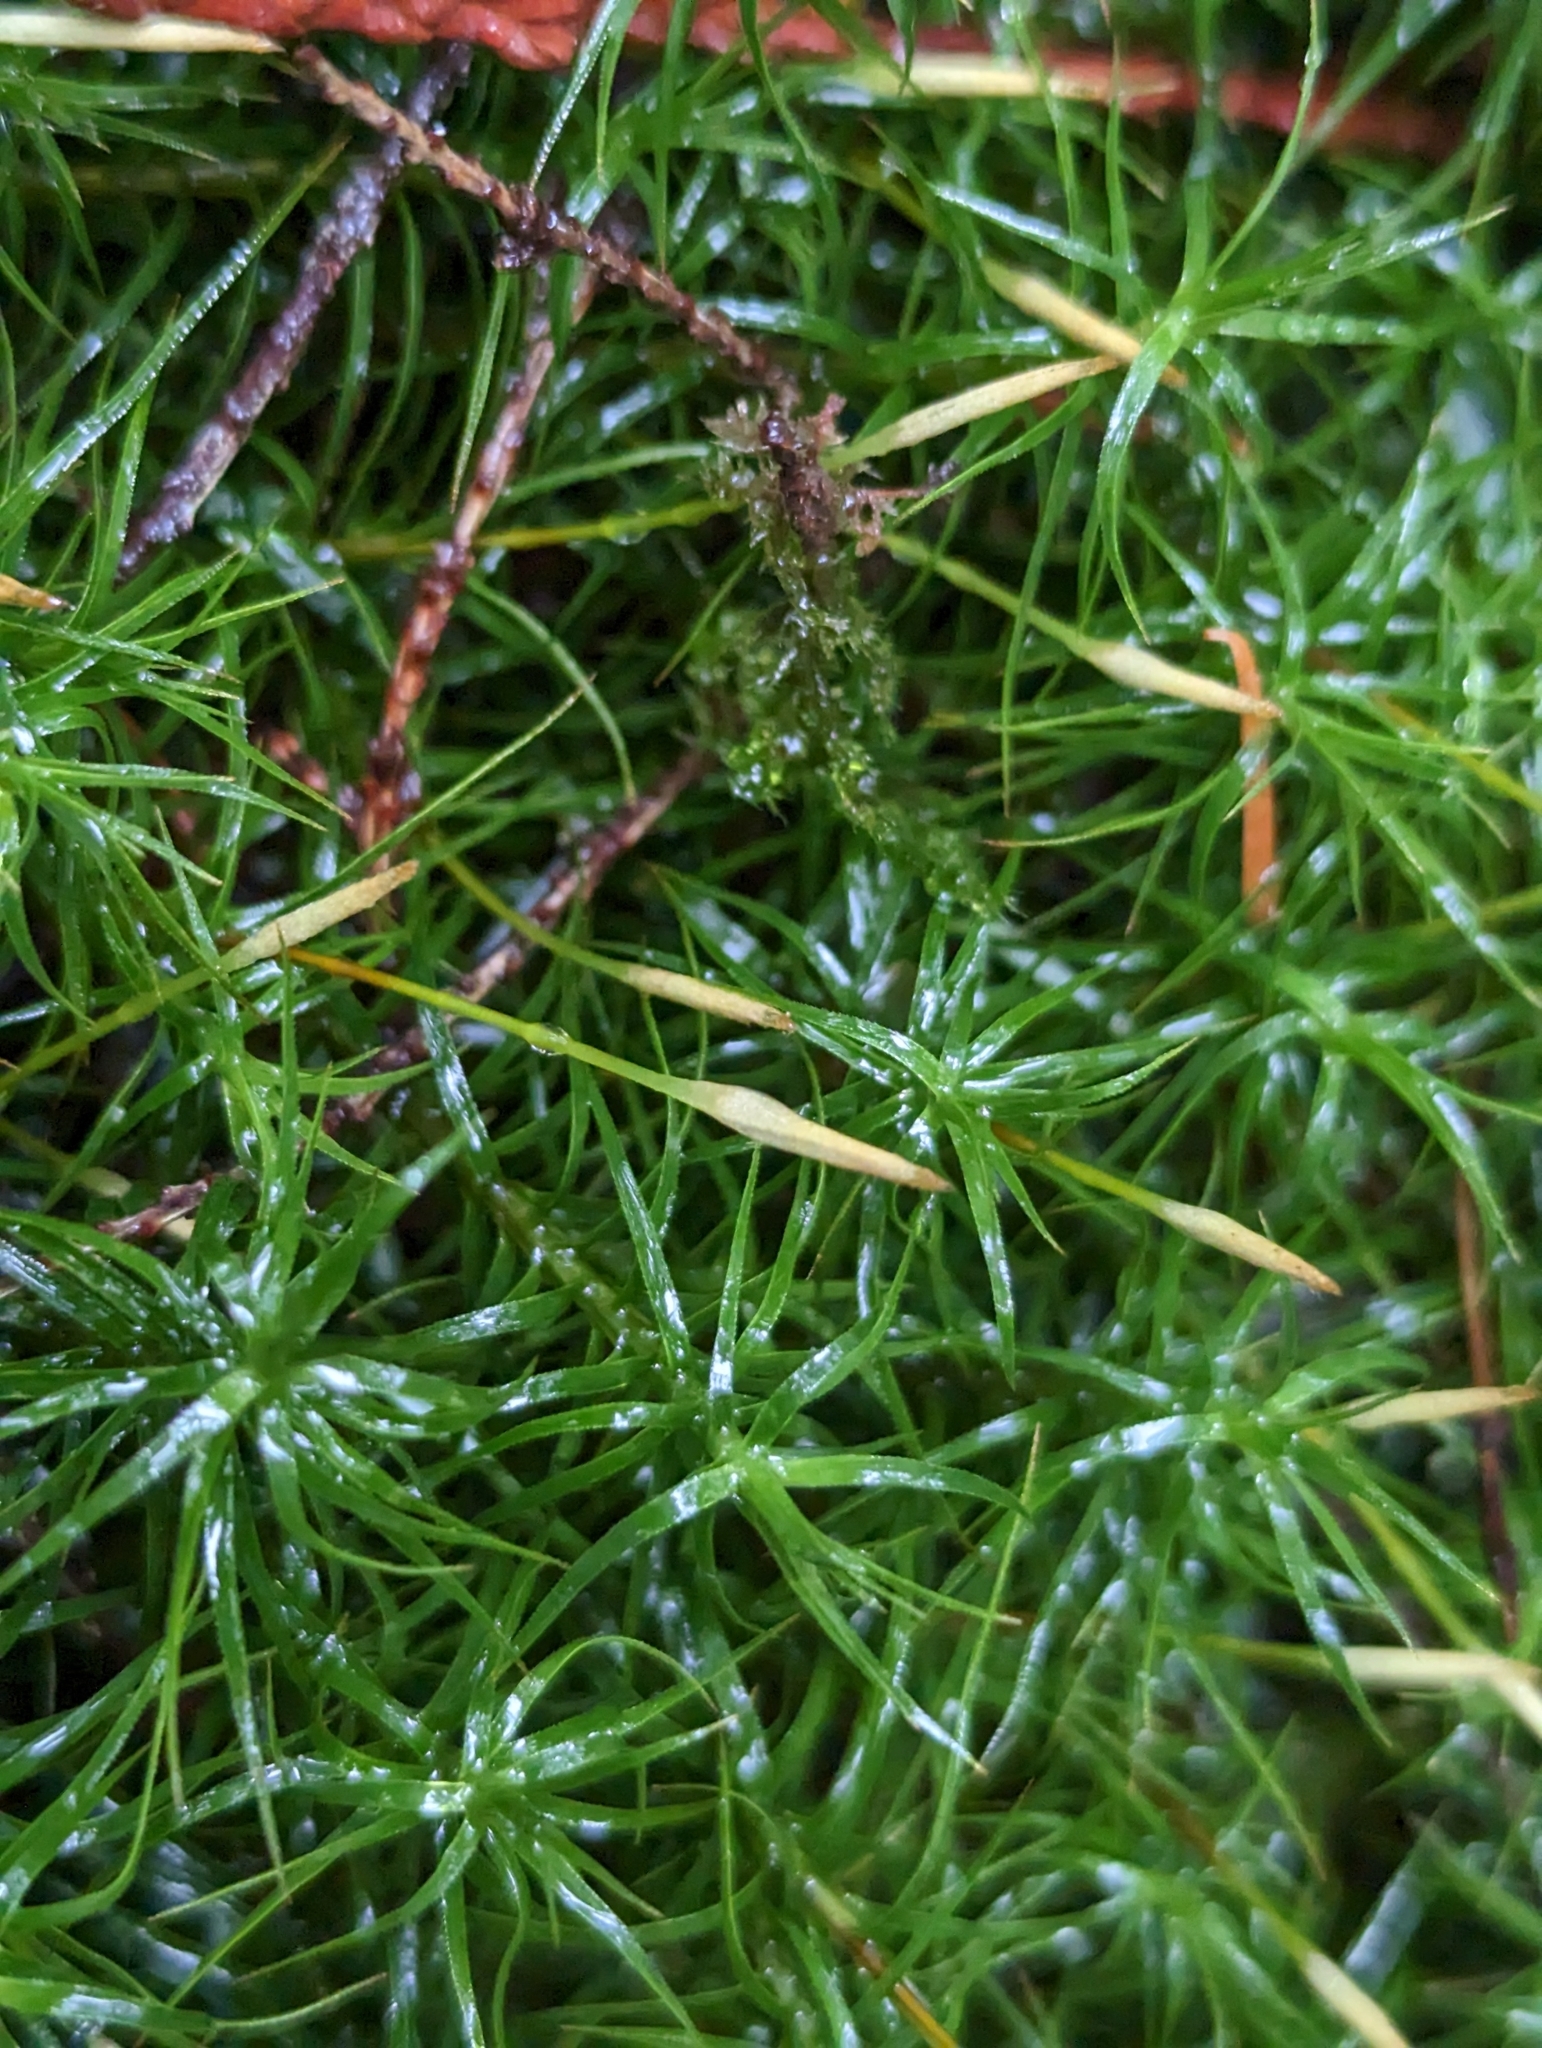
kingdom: Plantae
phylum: Bryophyta
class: Polytrichopsida
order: Polytrichales
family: Polytrichaceae
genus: Polytrichastrum
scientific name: Polytrichastrum alpinum
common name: Alpine haircap
